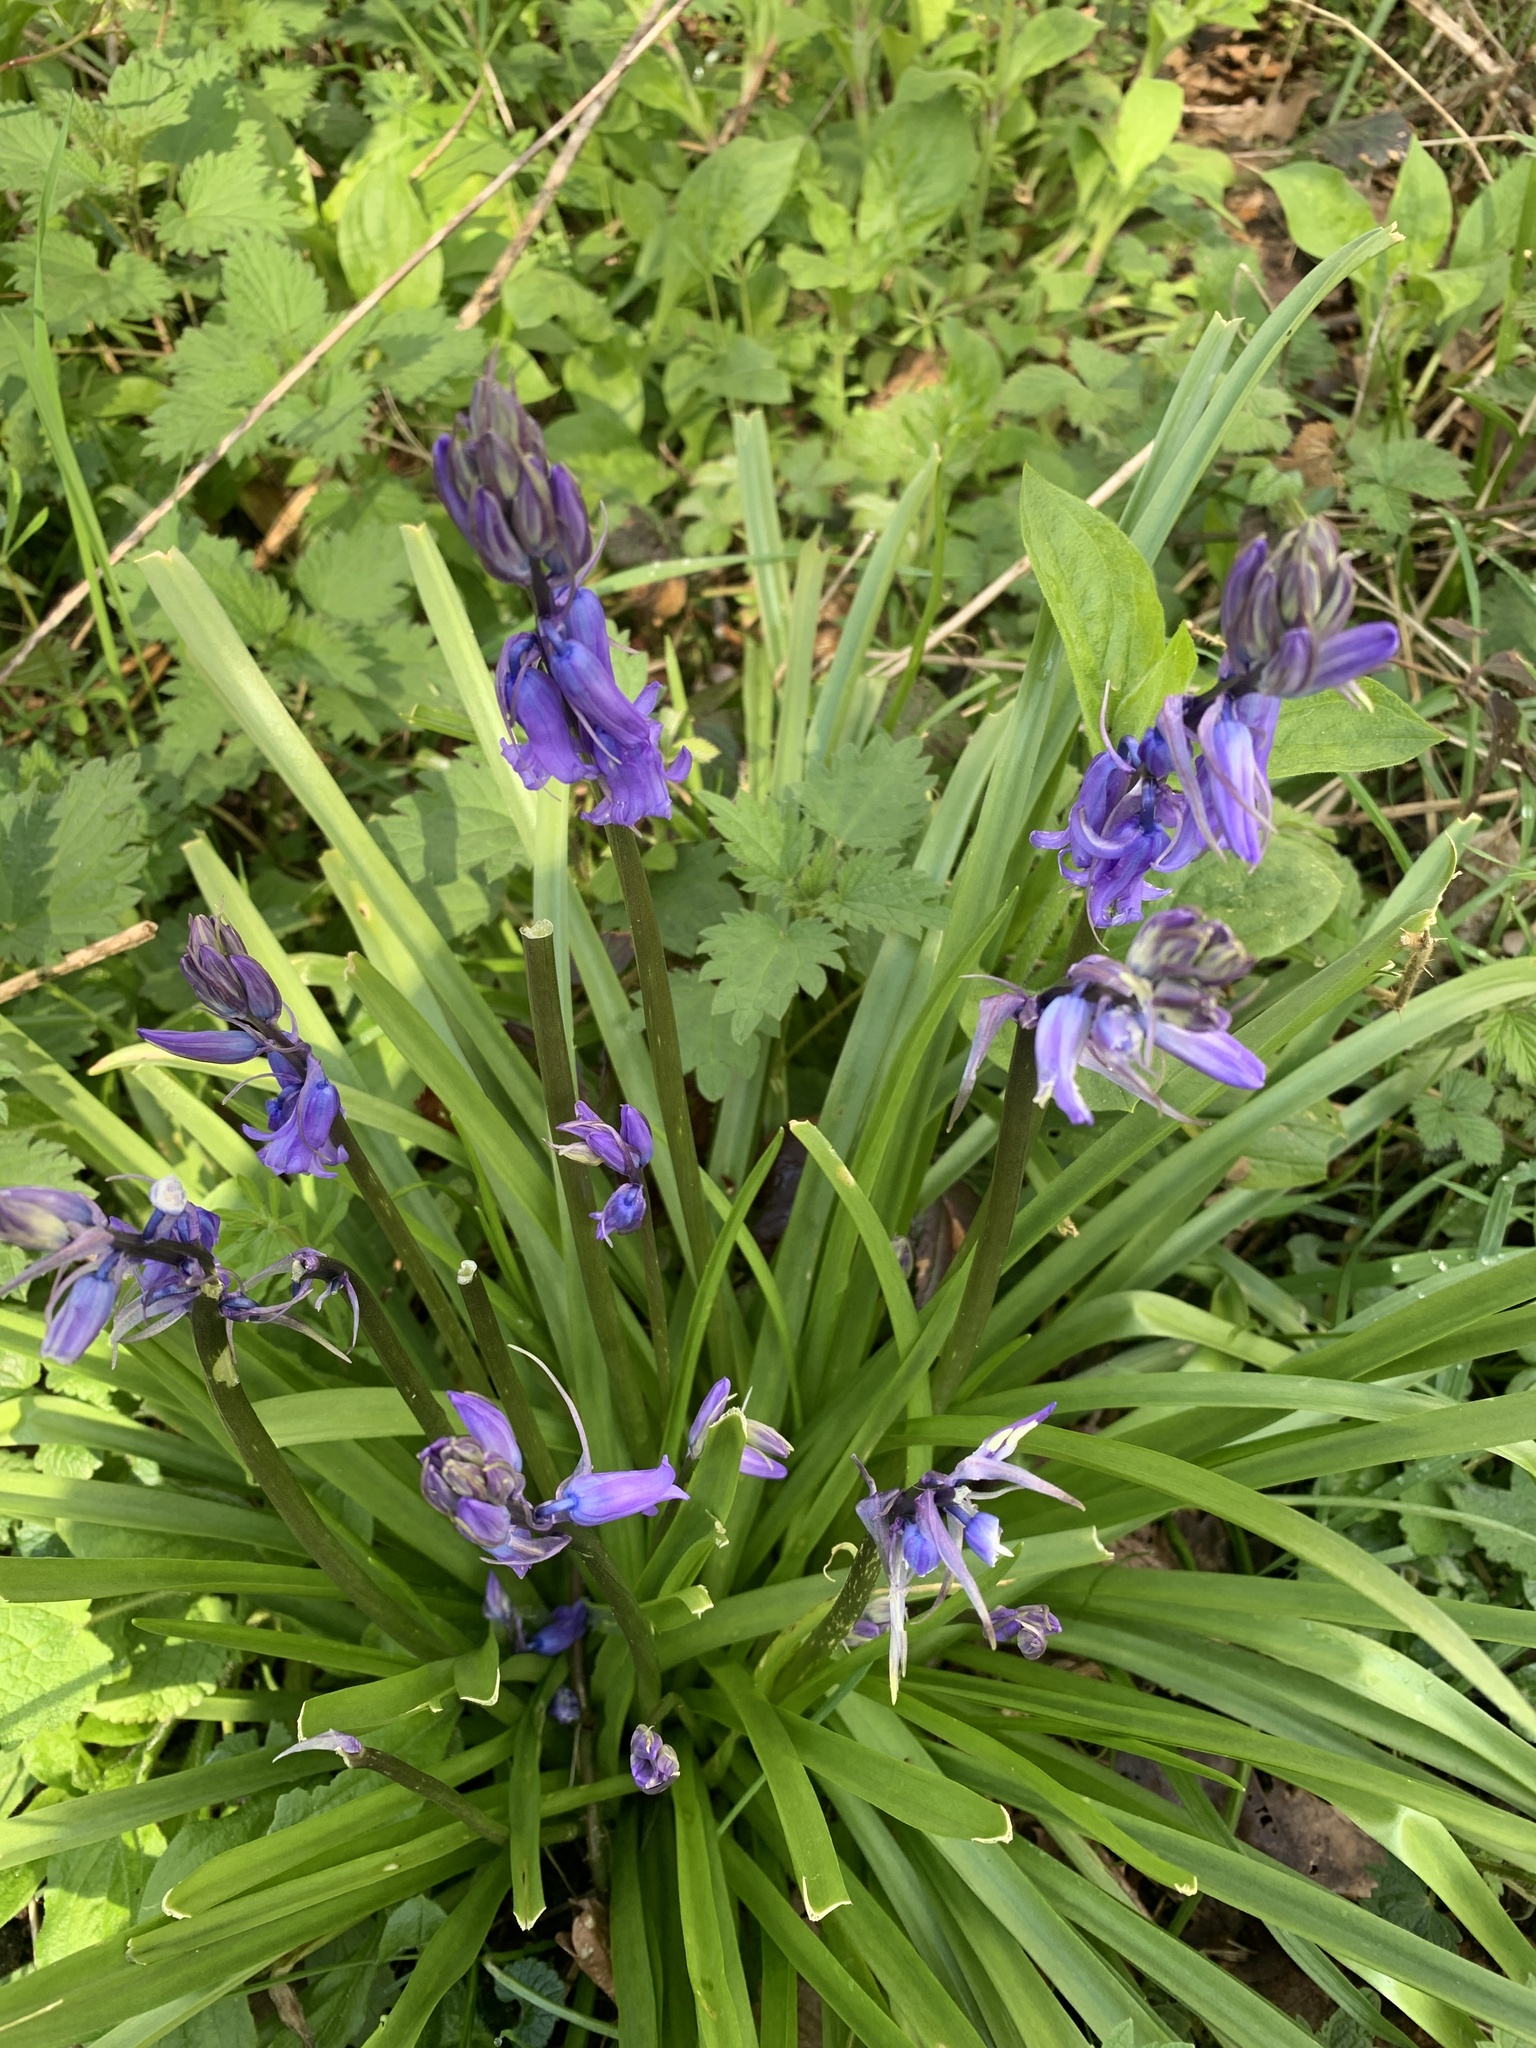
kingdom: Plantae
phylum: Tracheophyta
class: Liliopsida
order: Asparagales
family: Asparagaceae
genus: Hyacinthoides
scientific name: Hyacinthoides non-scripta
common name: Bluebell
